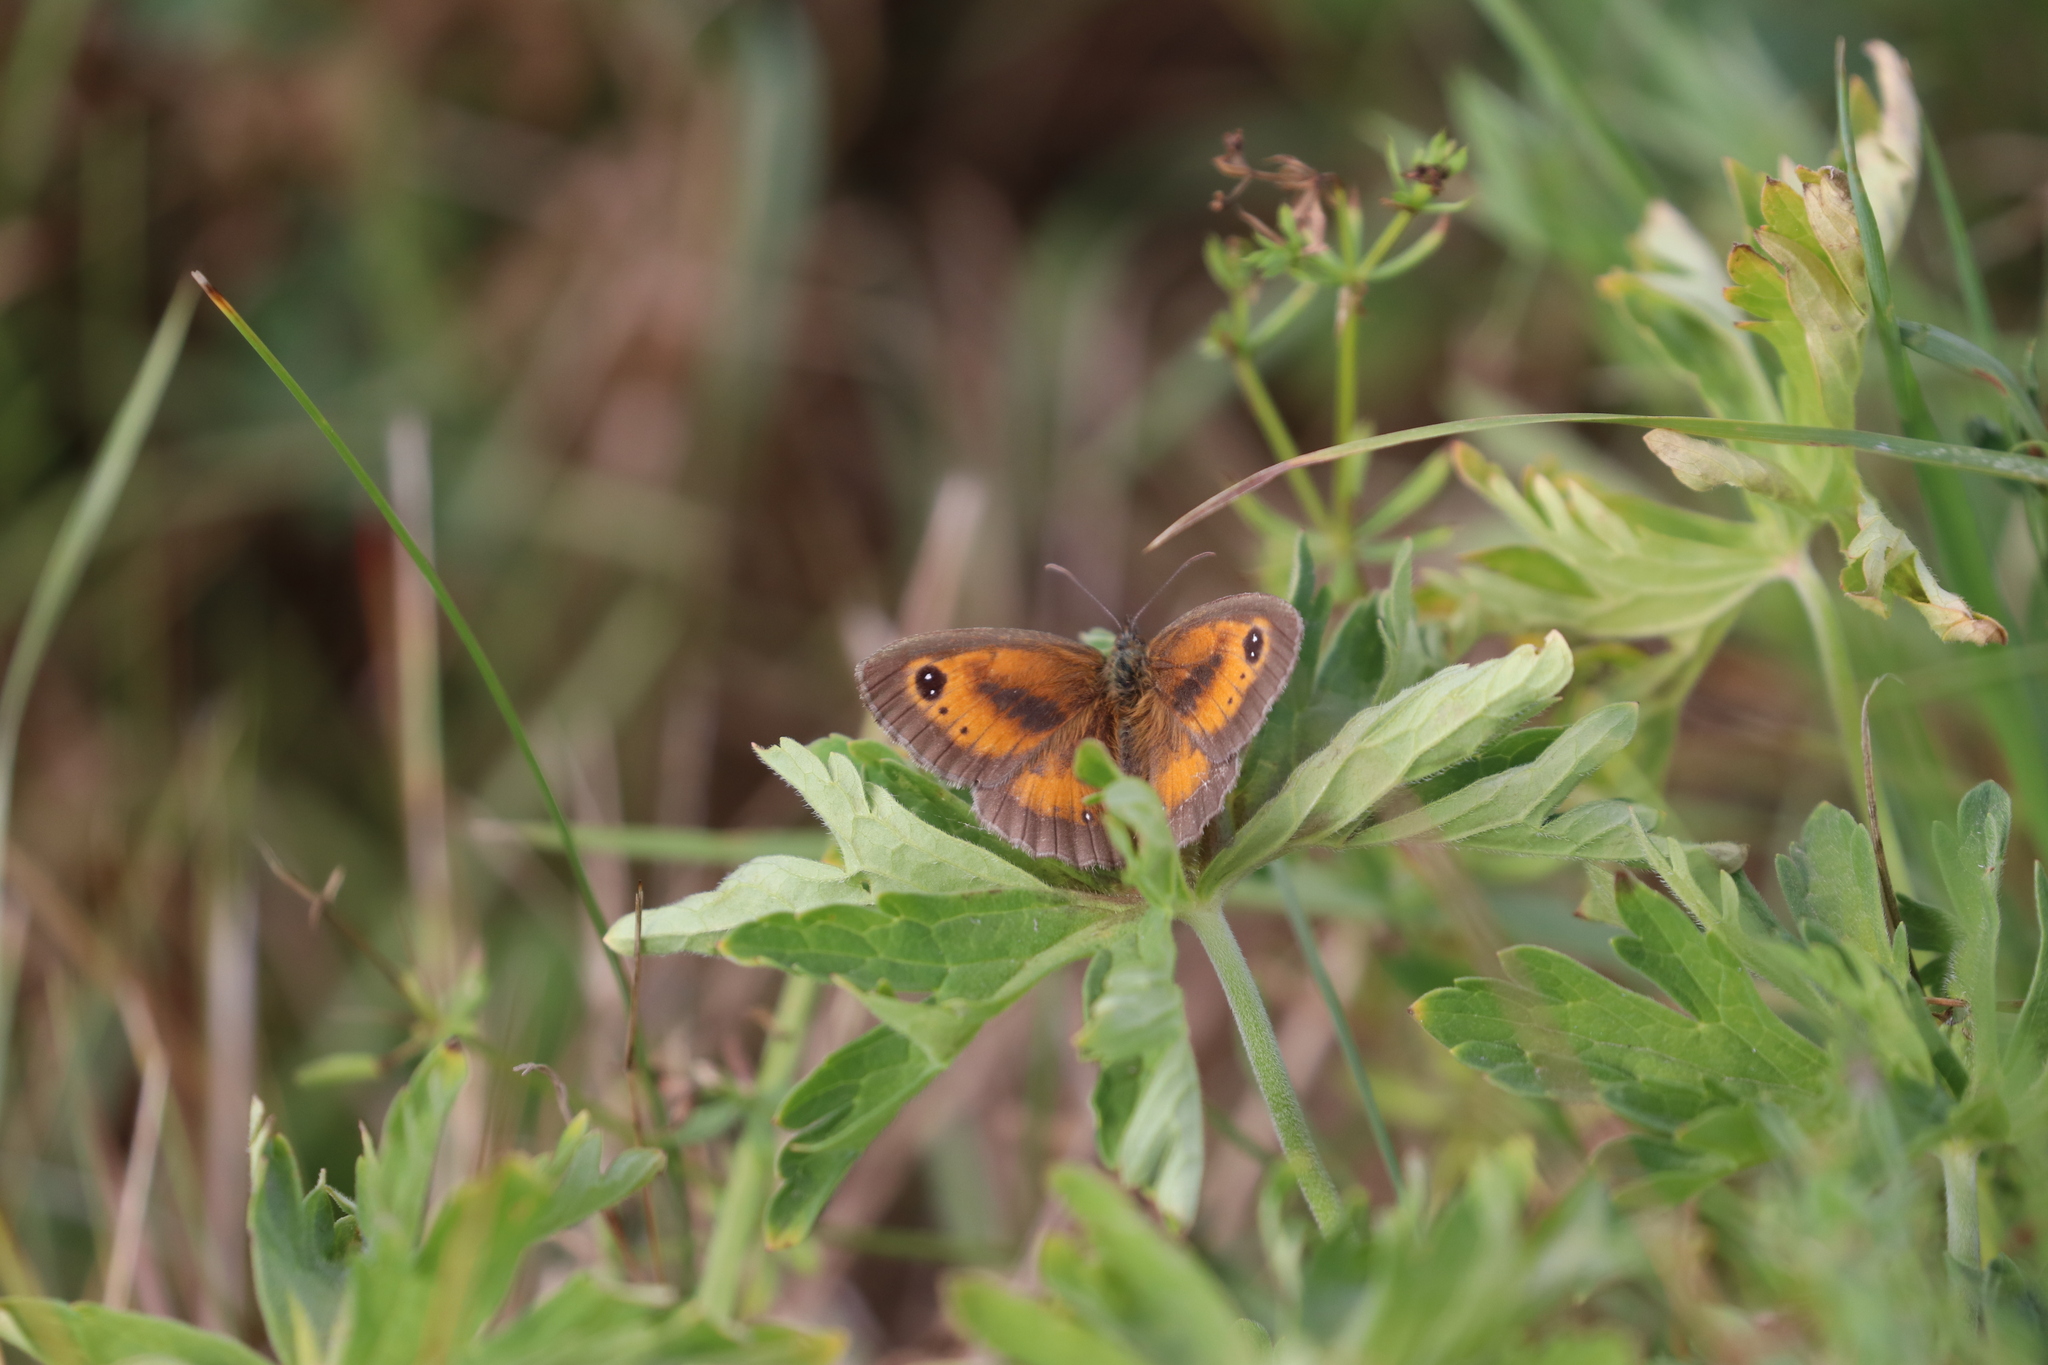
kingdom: Animalia
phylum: Arthropoda
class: Insecta
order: Lepidoptera
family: Nymphalidae
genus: Pyronia
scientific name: Pyronia tithonus
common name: Gatekeeper
